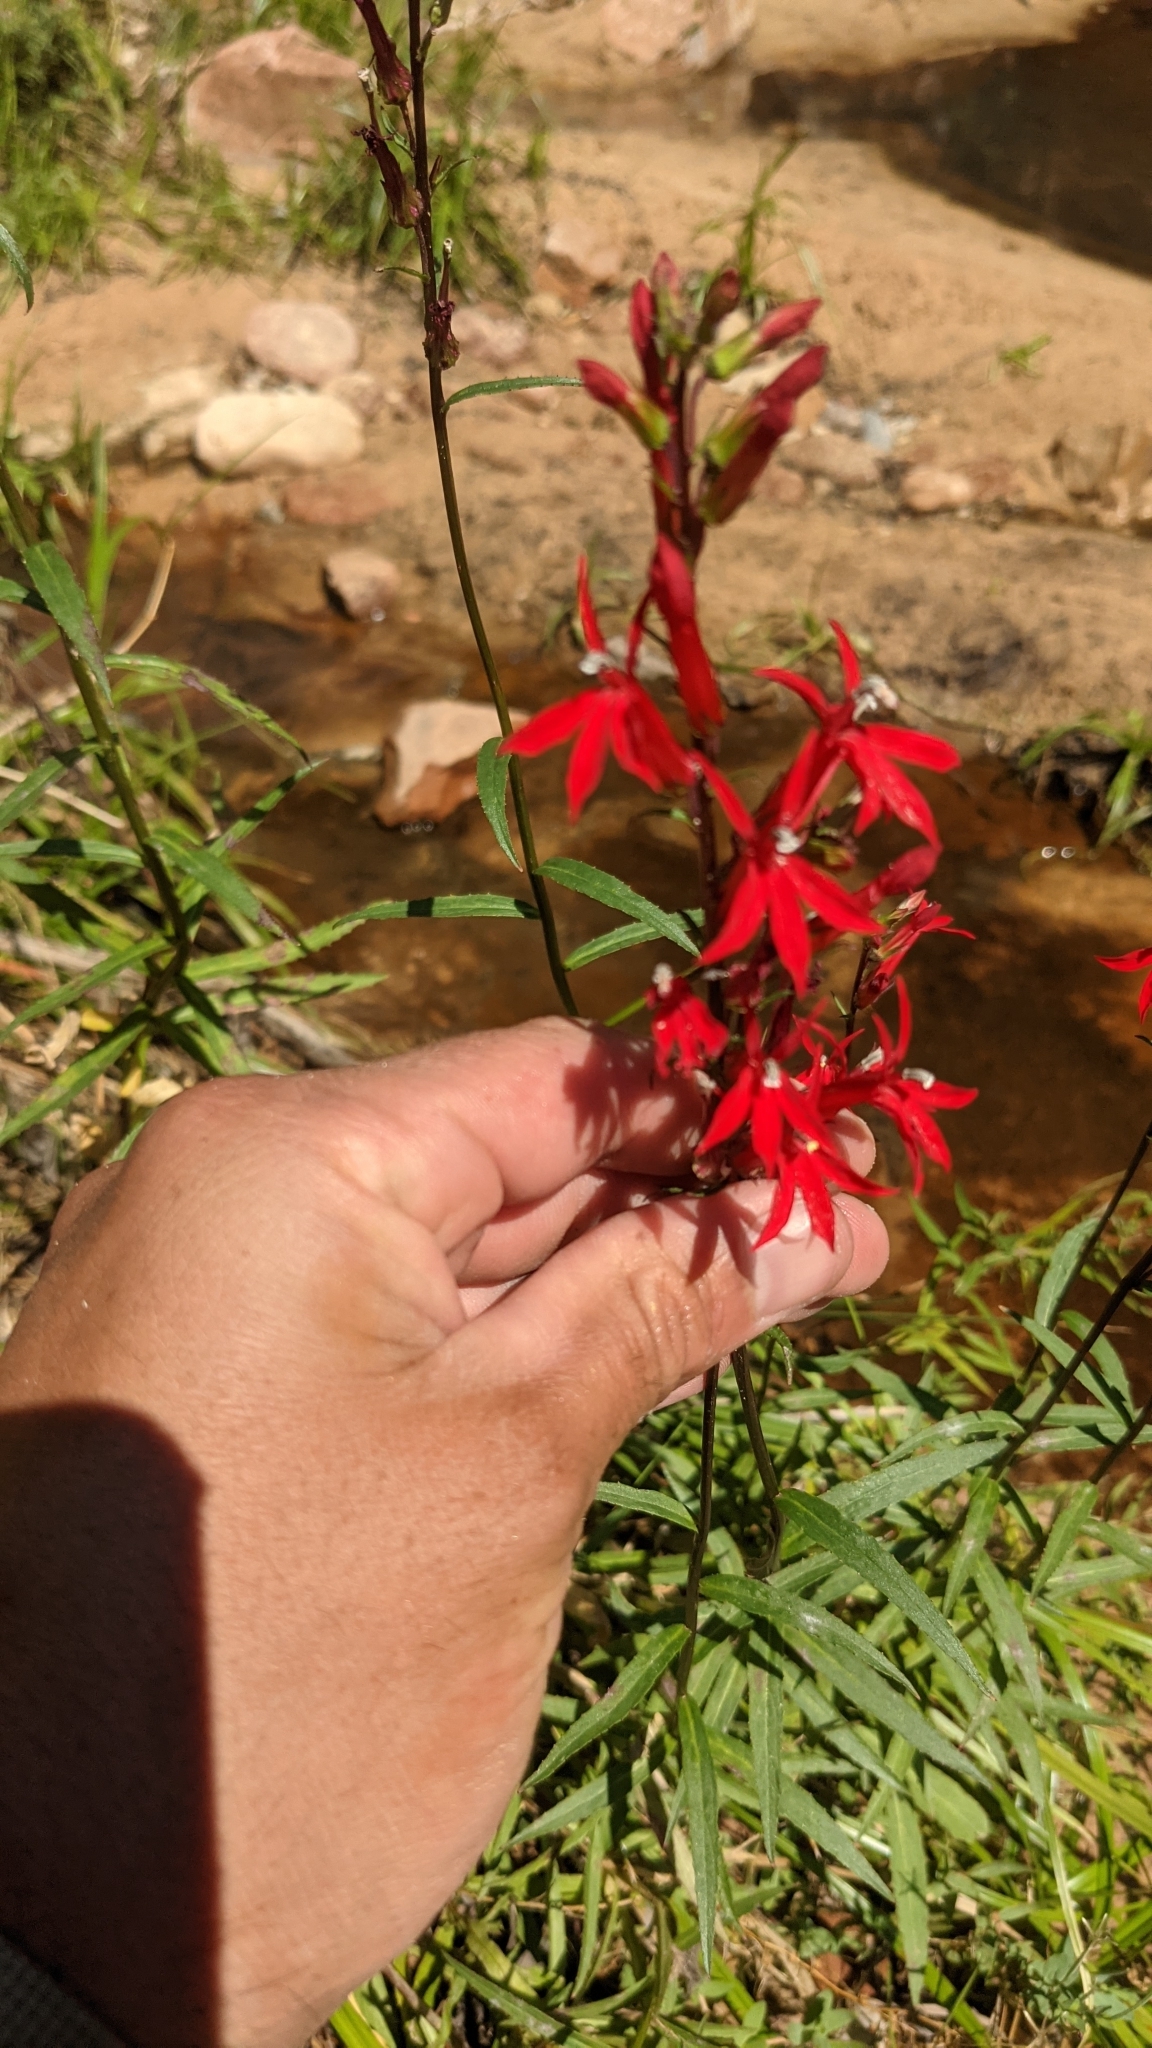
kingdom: Plantae
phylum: Tracheophyta
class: Magnoliopsida
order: Asterales
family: Campanulaceae
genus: Lobelia
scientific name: Lobelia cardinalis
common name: Cardinal flower
